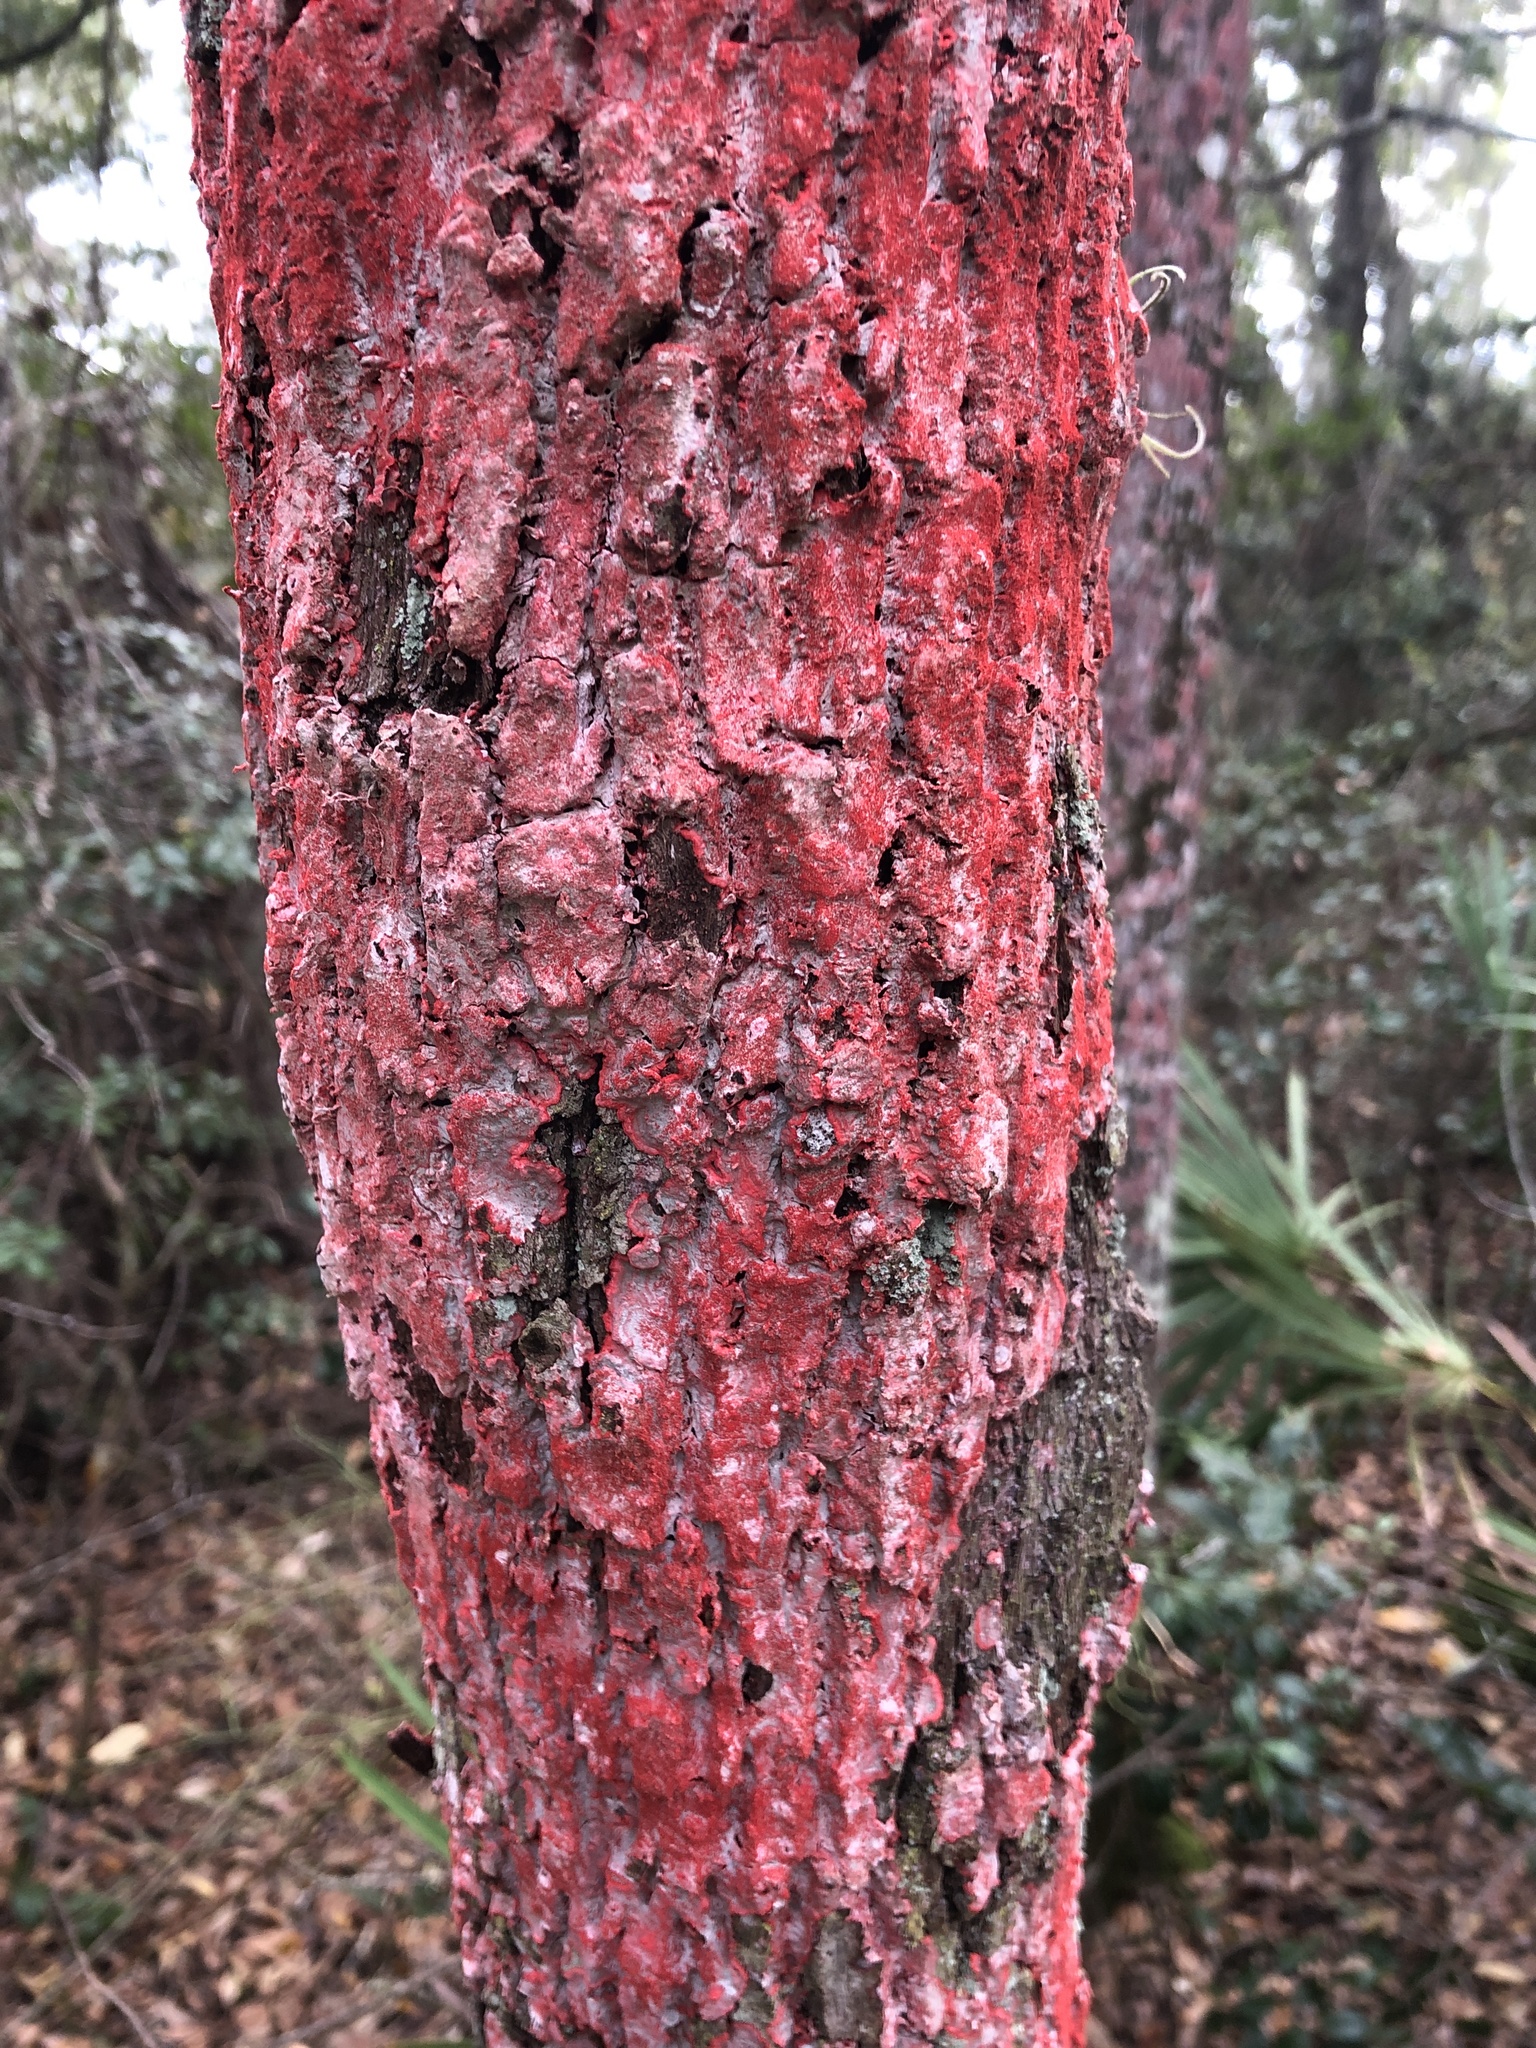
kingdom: Fungi
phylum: Ascomycota
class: Arthoniomycetes
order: Arthoniales
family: Arthoniaceae
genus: Herpothallon
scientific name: Herpothallon rubrocinctum
